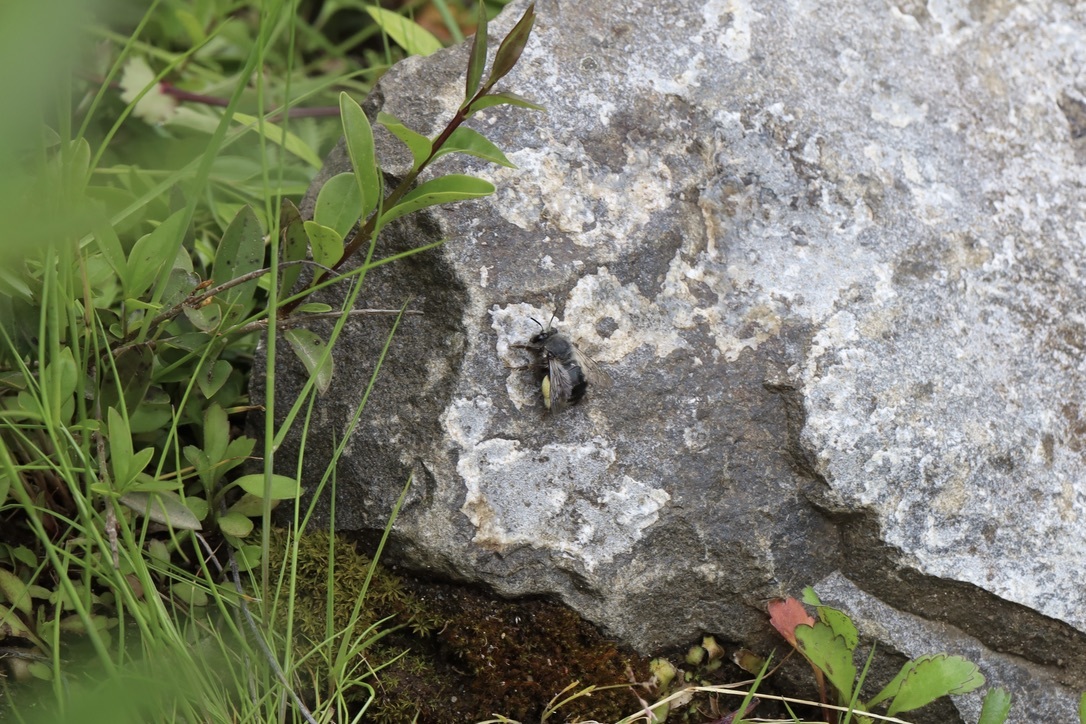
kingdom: Animalia
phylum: Arthropoda
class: Insecta
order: Hymenoptera
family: Apidae
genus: Anthophora
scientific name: Anthophora pacifica
